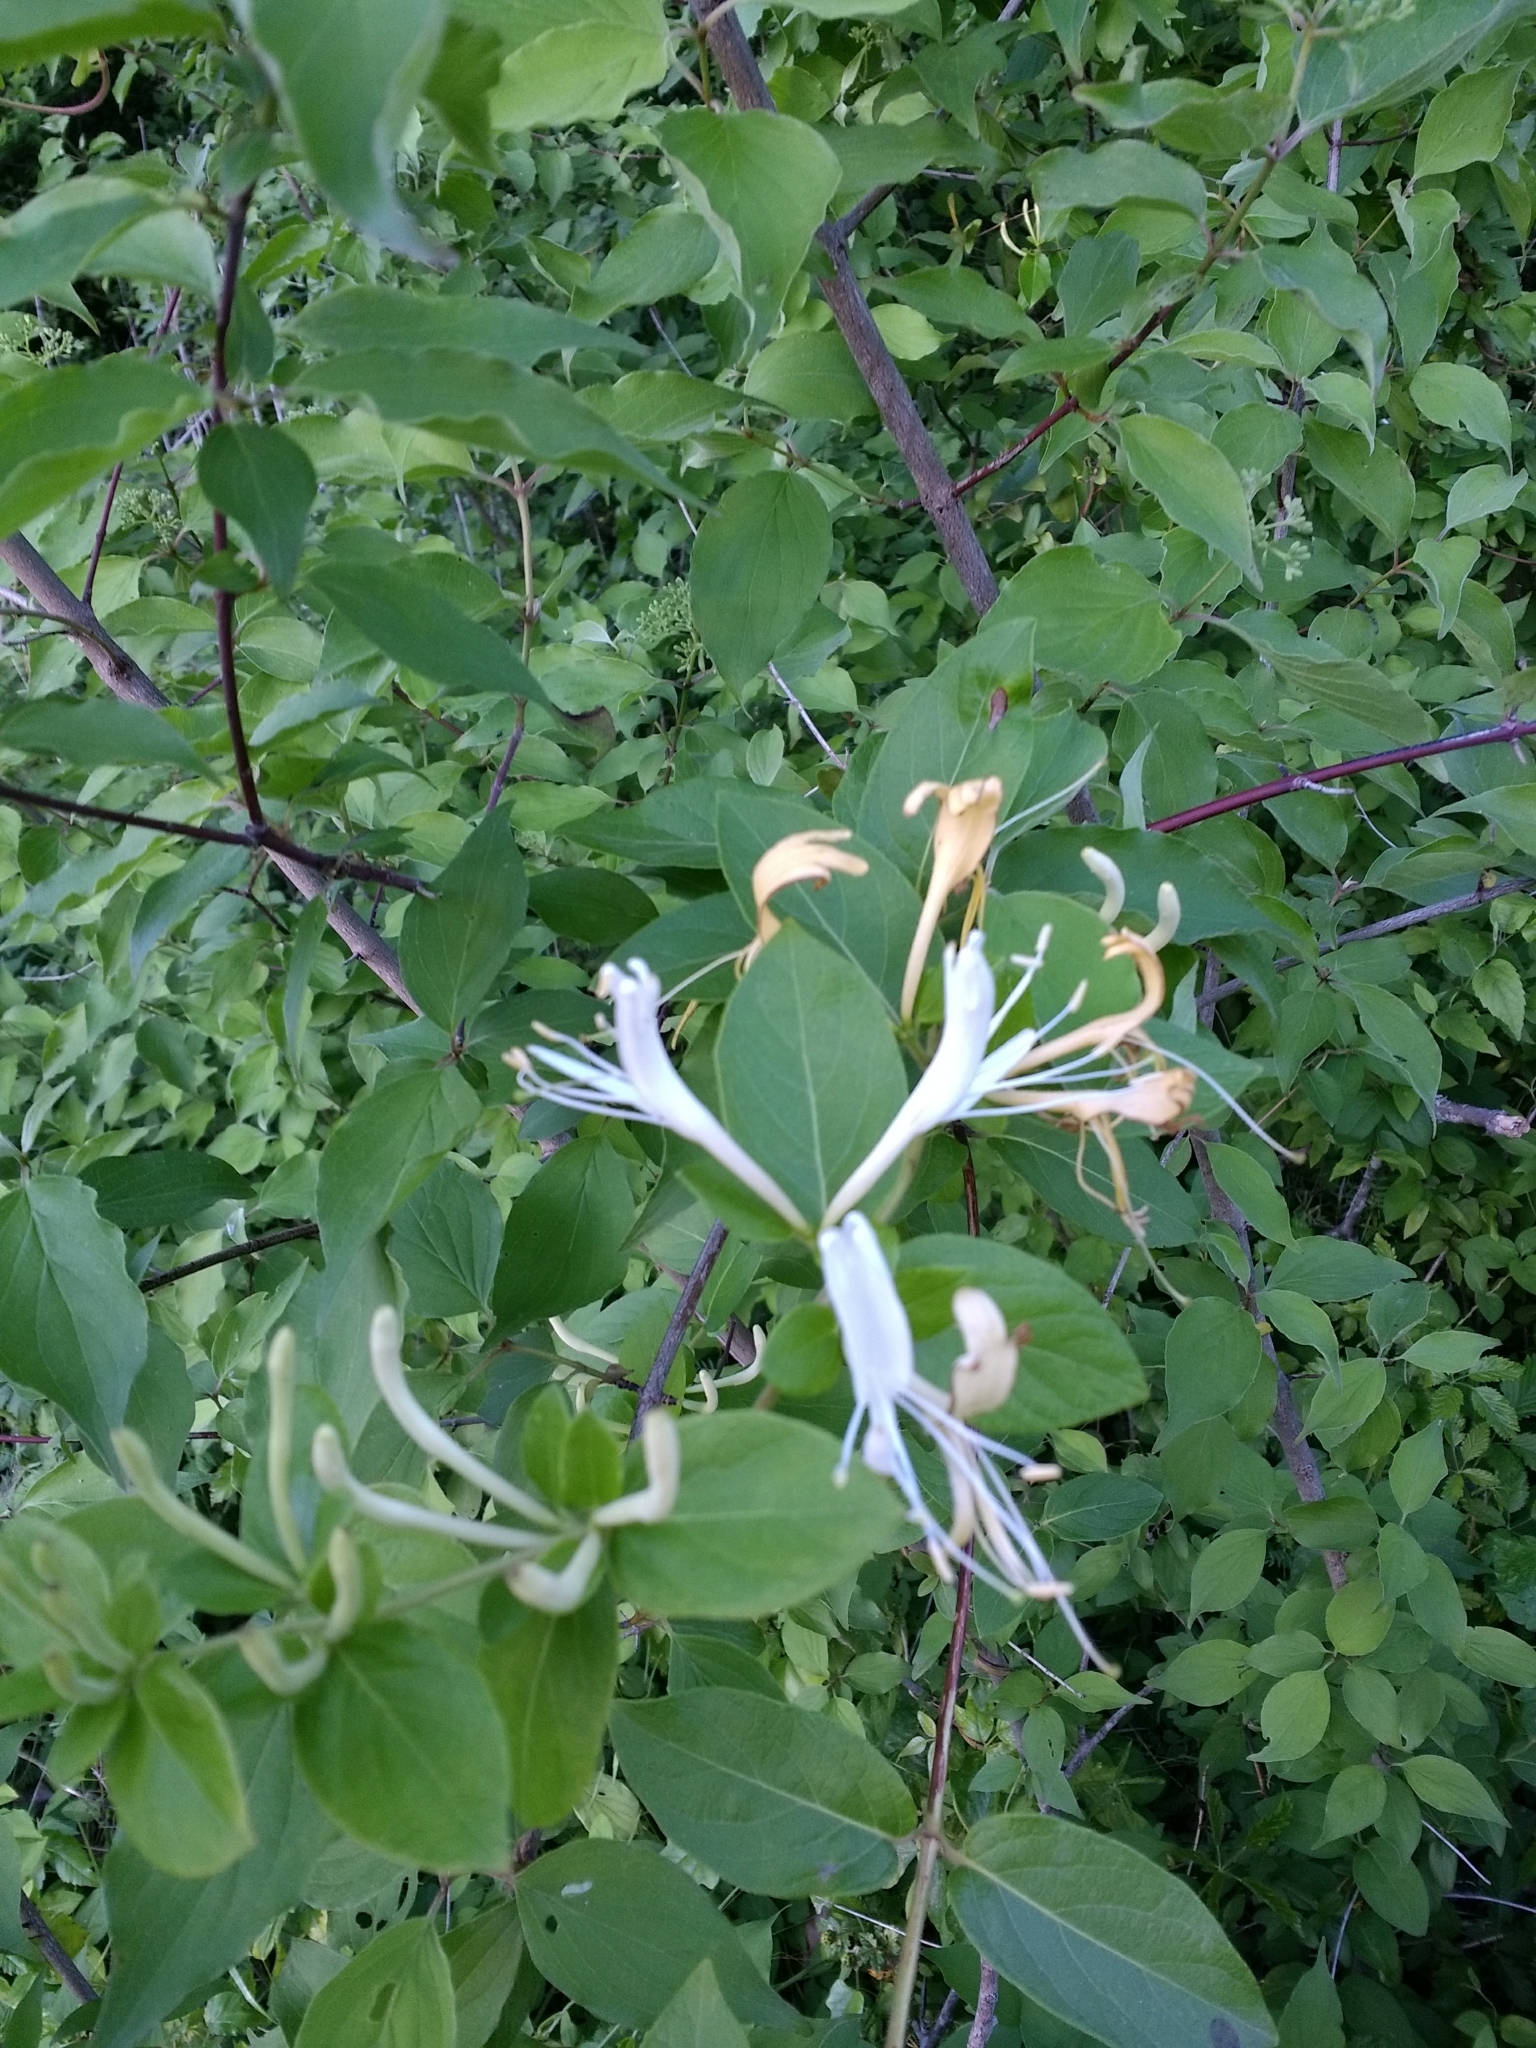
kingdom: Plantae
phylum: Tracheophyta
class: Magnoliopsida
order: Dipsacales
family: Caprifoliaceae
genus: Lonicera
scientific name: Lonicera japonica
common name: Japanese honeysuckle
